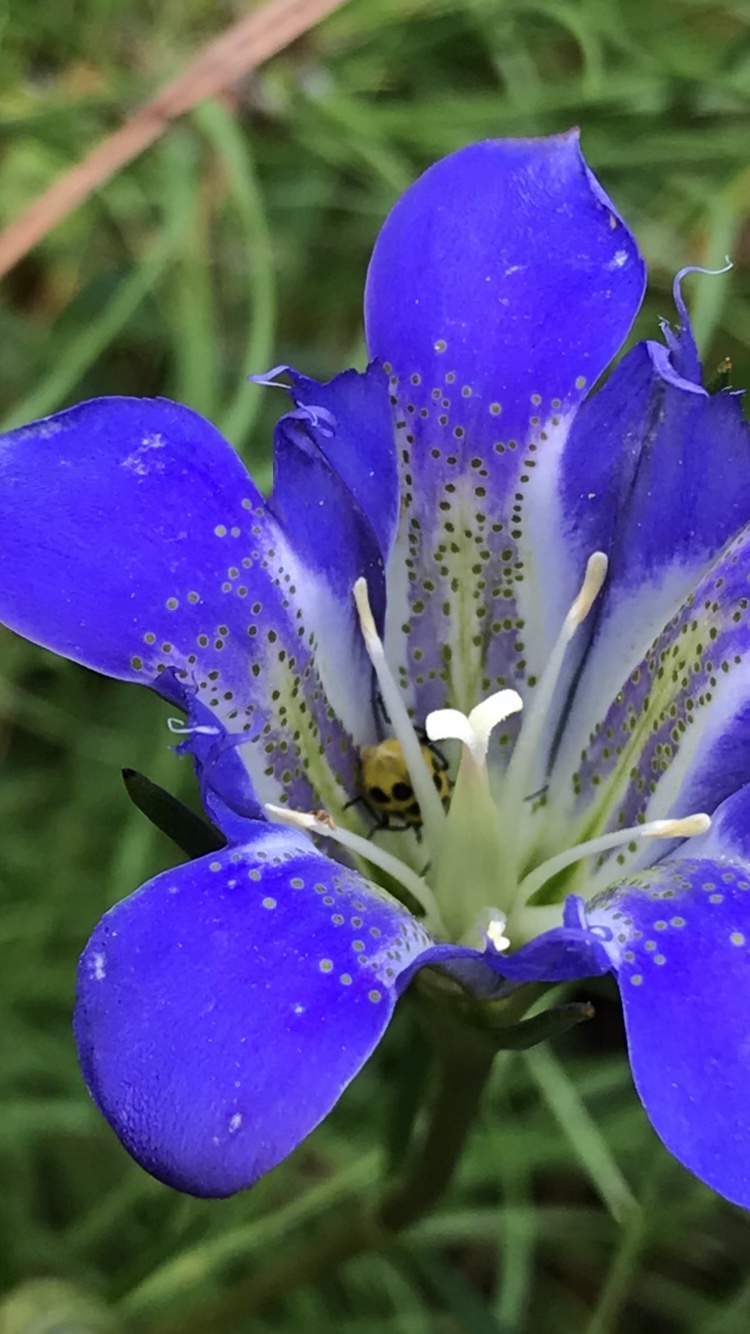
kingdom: Animalia
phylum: Arthropoda
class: Insecta
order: Coleoptera
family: Chrysomelidae
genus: Diabrotica
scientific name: Diabrotica undecimpunctata
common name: Spotted cucumber beetle
